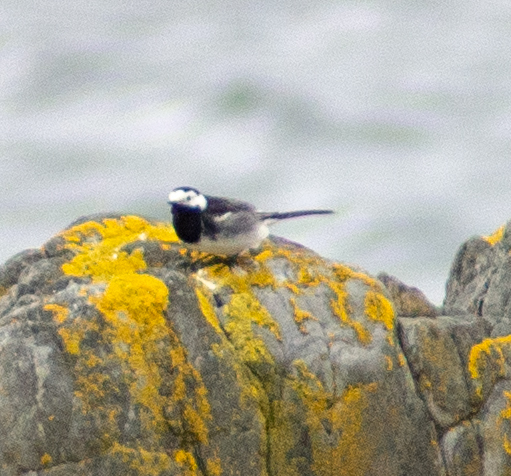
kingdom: Animalia
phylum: Chordata
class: Aves
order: Passeriformes
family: Motacillidae
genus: Motacilla
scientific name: Motacilla alba
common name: White wagtail
